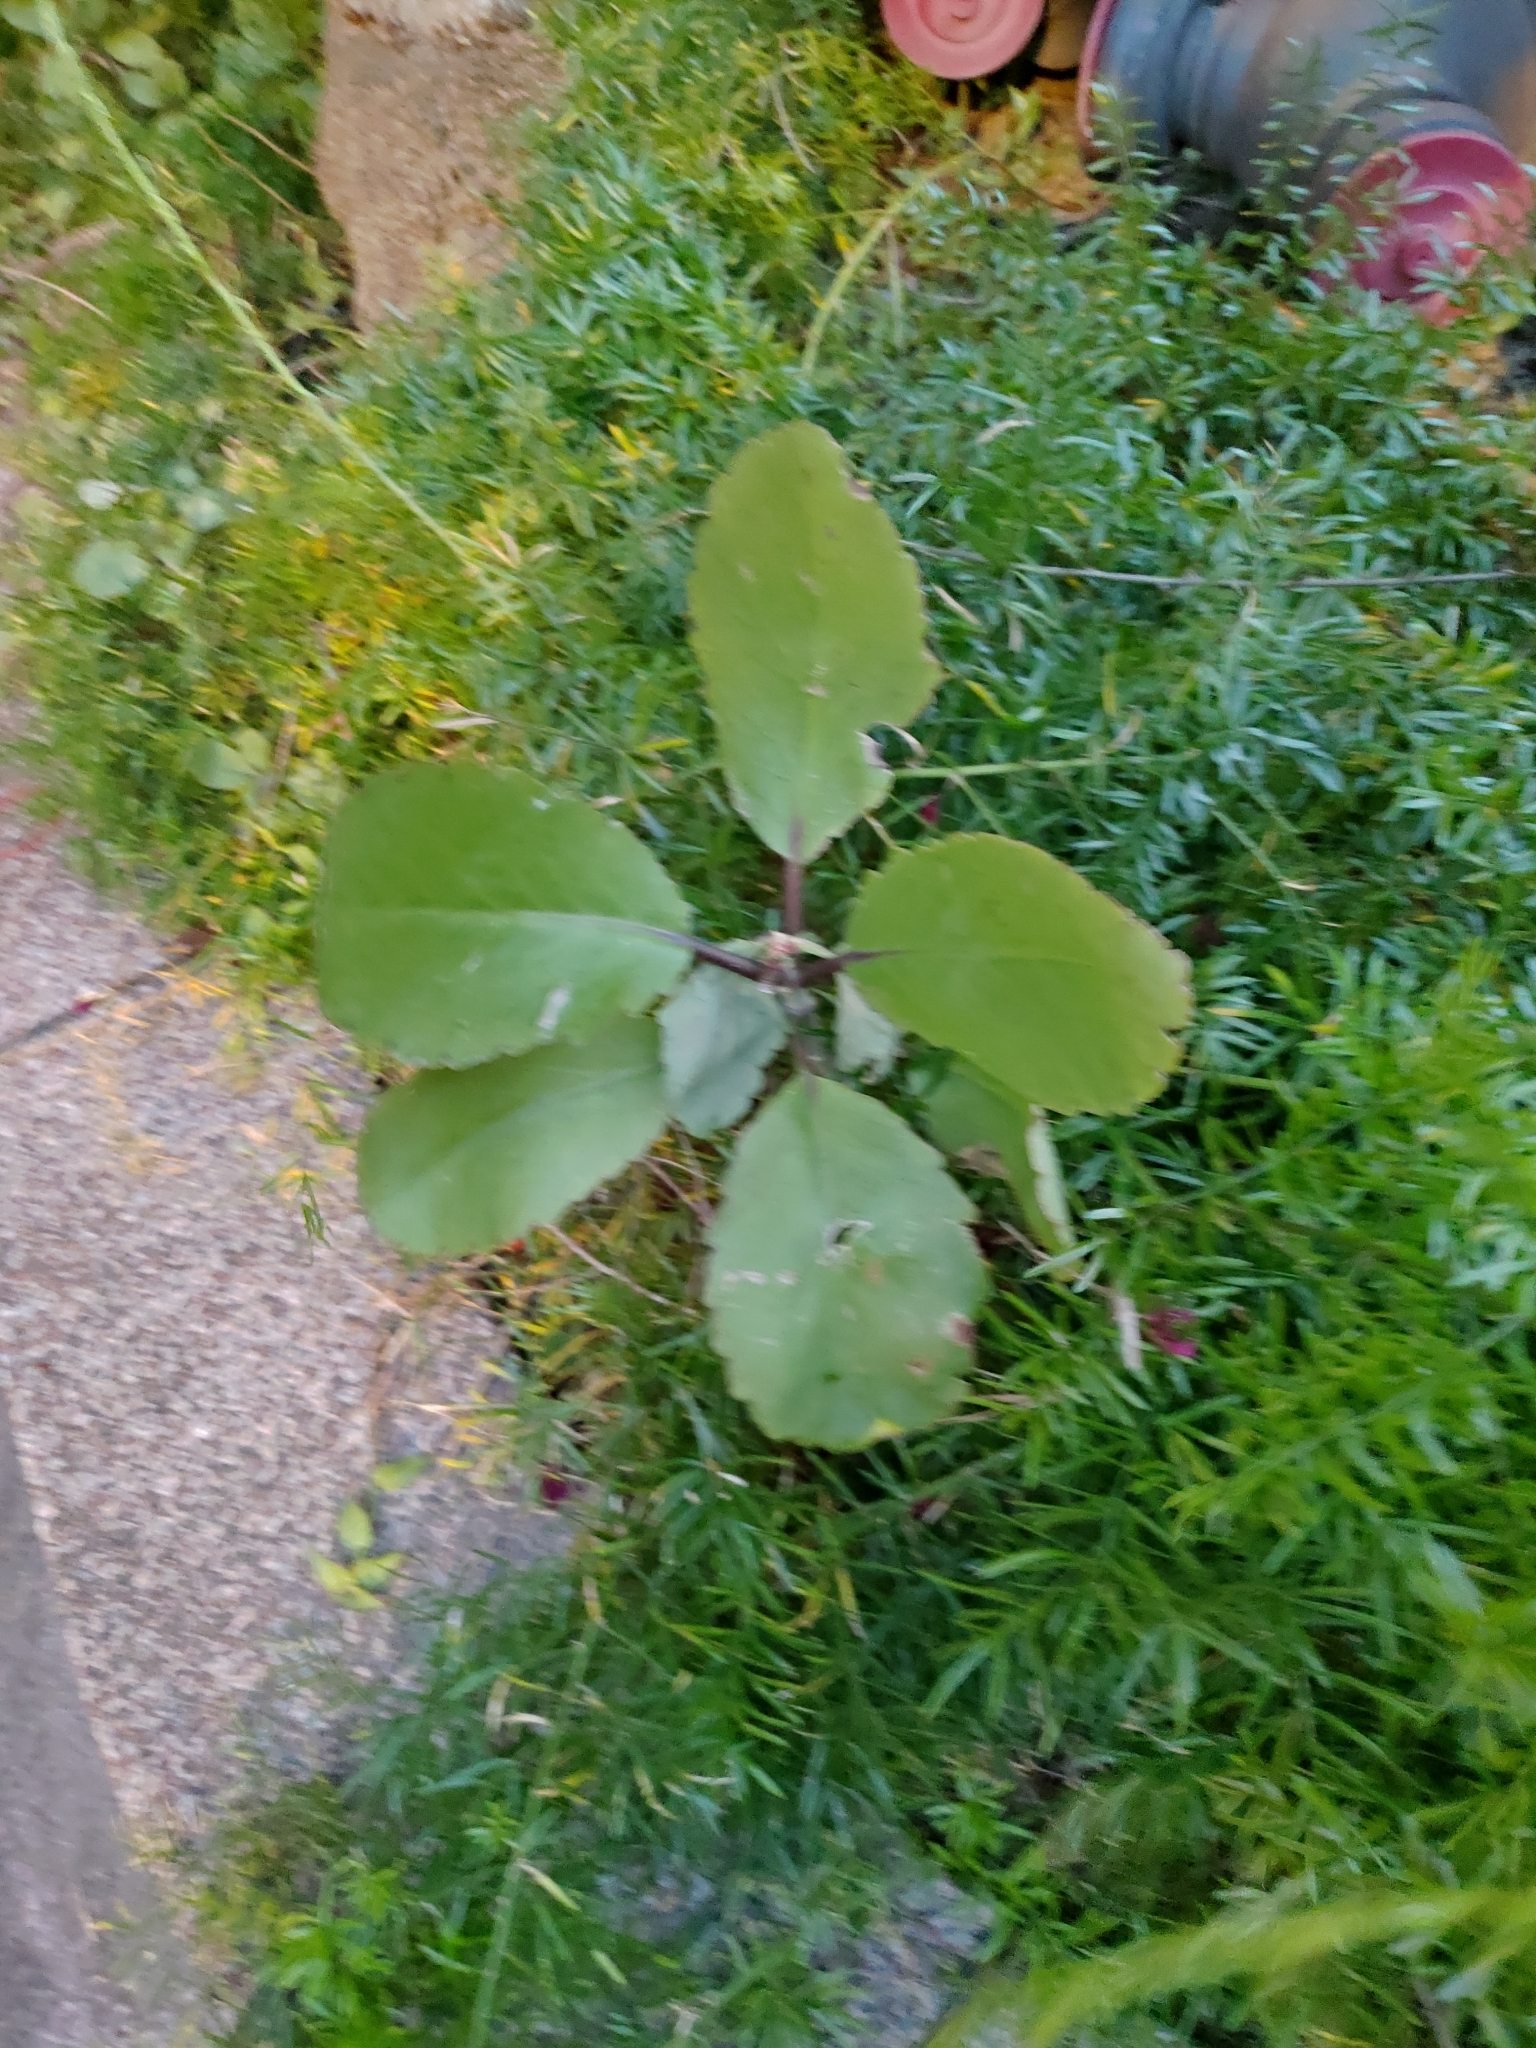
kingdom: Plantae
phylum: Tracheophyta
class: Magnoliopsida
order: Saxifragales
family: Crassulaceae
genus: Kalanchoe
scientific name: Kalanchoe pinnata
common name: Cathedral bells
